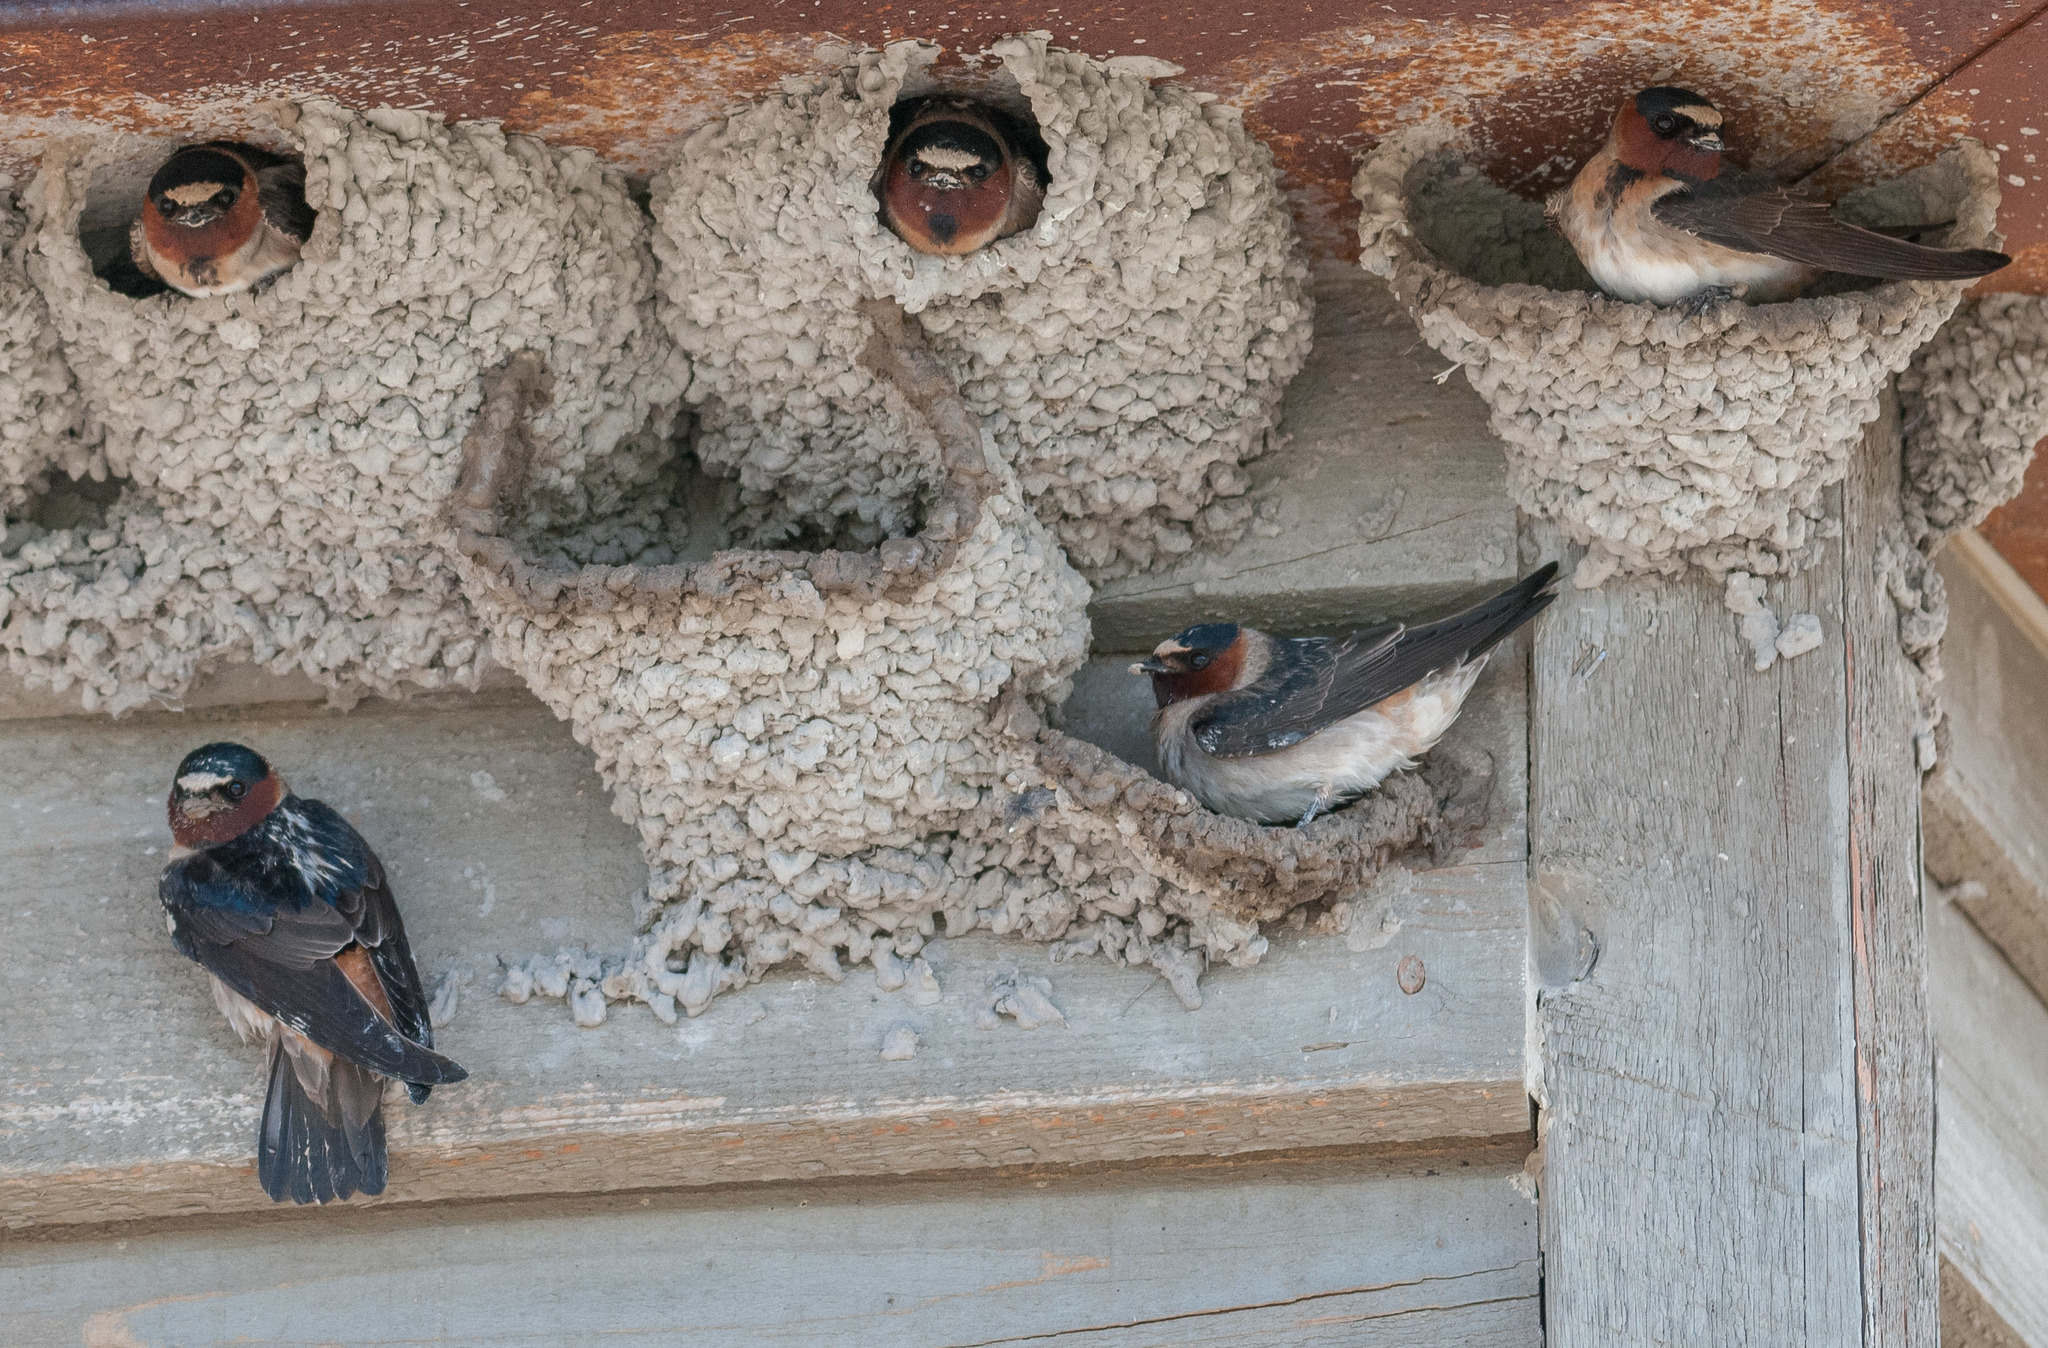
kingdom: Animalia
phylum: Chordata
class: Aves
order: Passeriformes
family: Hirundinidae
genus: Petrochelidon
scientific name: Petrochelidon pyrrhonota
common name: American cliff swallow
